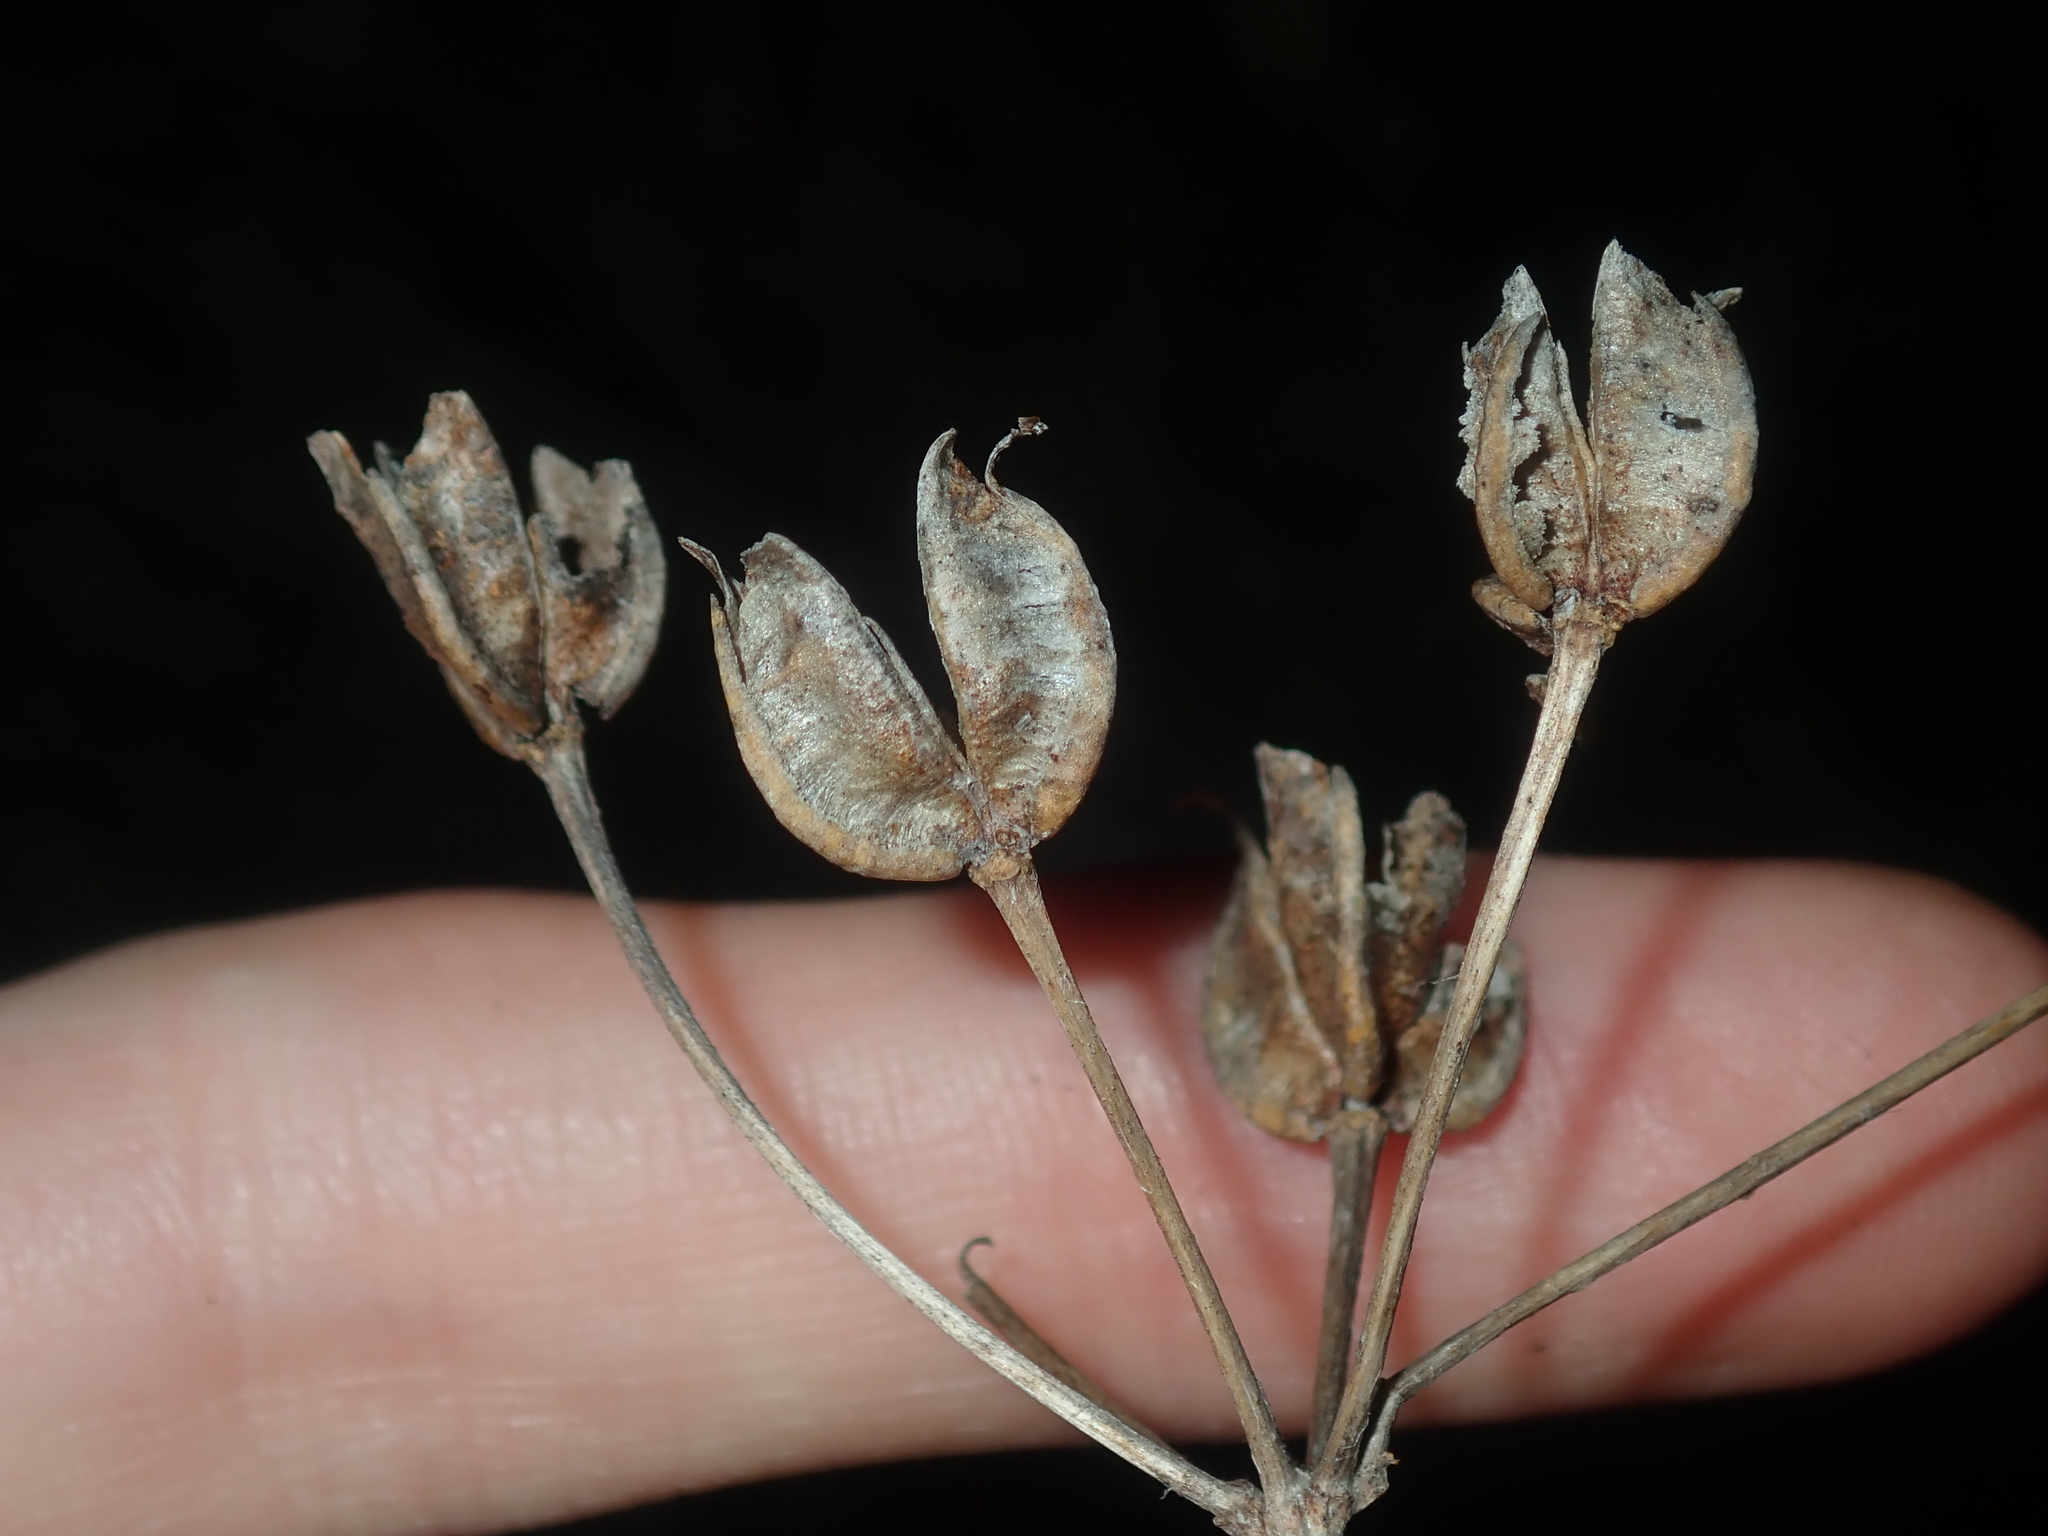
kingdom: Plantae
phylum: Tracheophyta
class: Liliopsida
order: Liliales
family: Colchicaceae
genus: Burchardia
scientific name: Burchardia congesta
